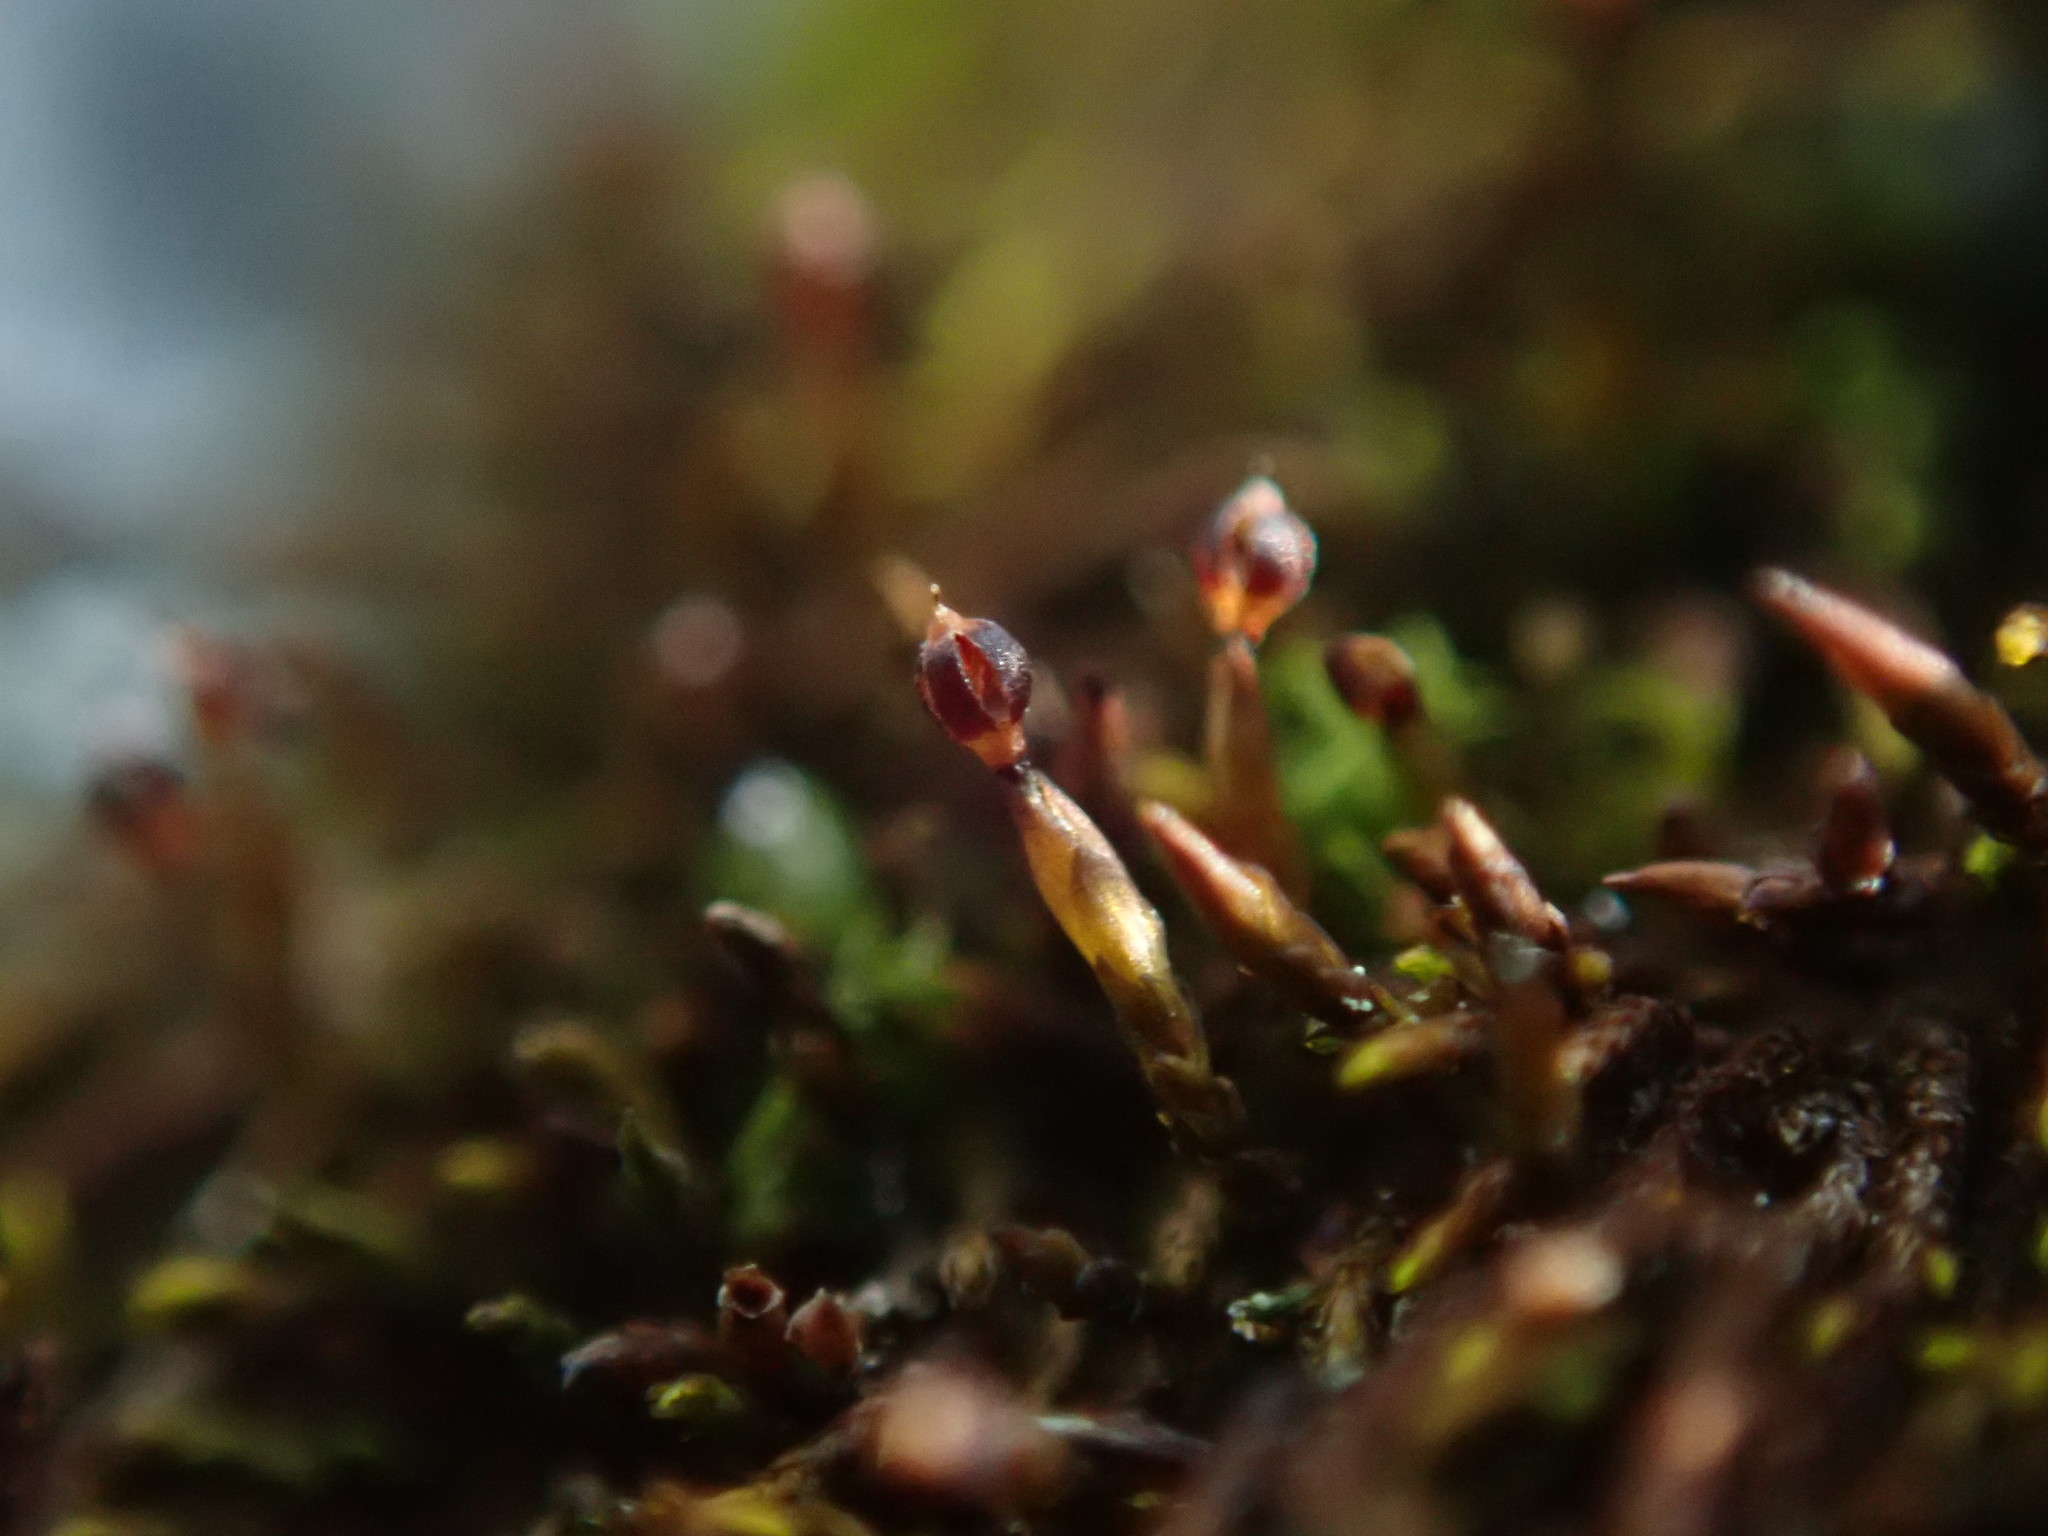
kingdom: Plantae
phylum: Bryophyta
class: Andreaeopsida
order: Andreaeales
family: Andreaeaceae
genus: Andreaea
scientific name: Andreaea rupestris
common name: Black rock moss
